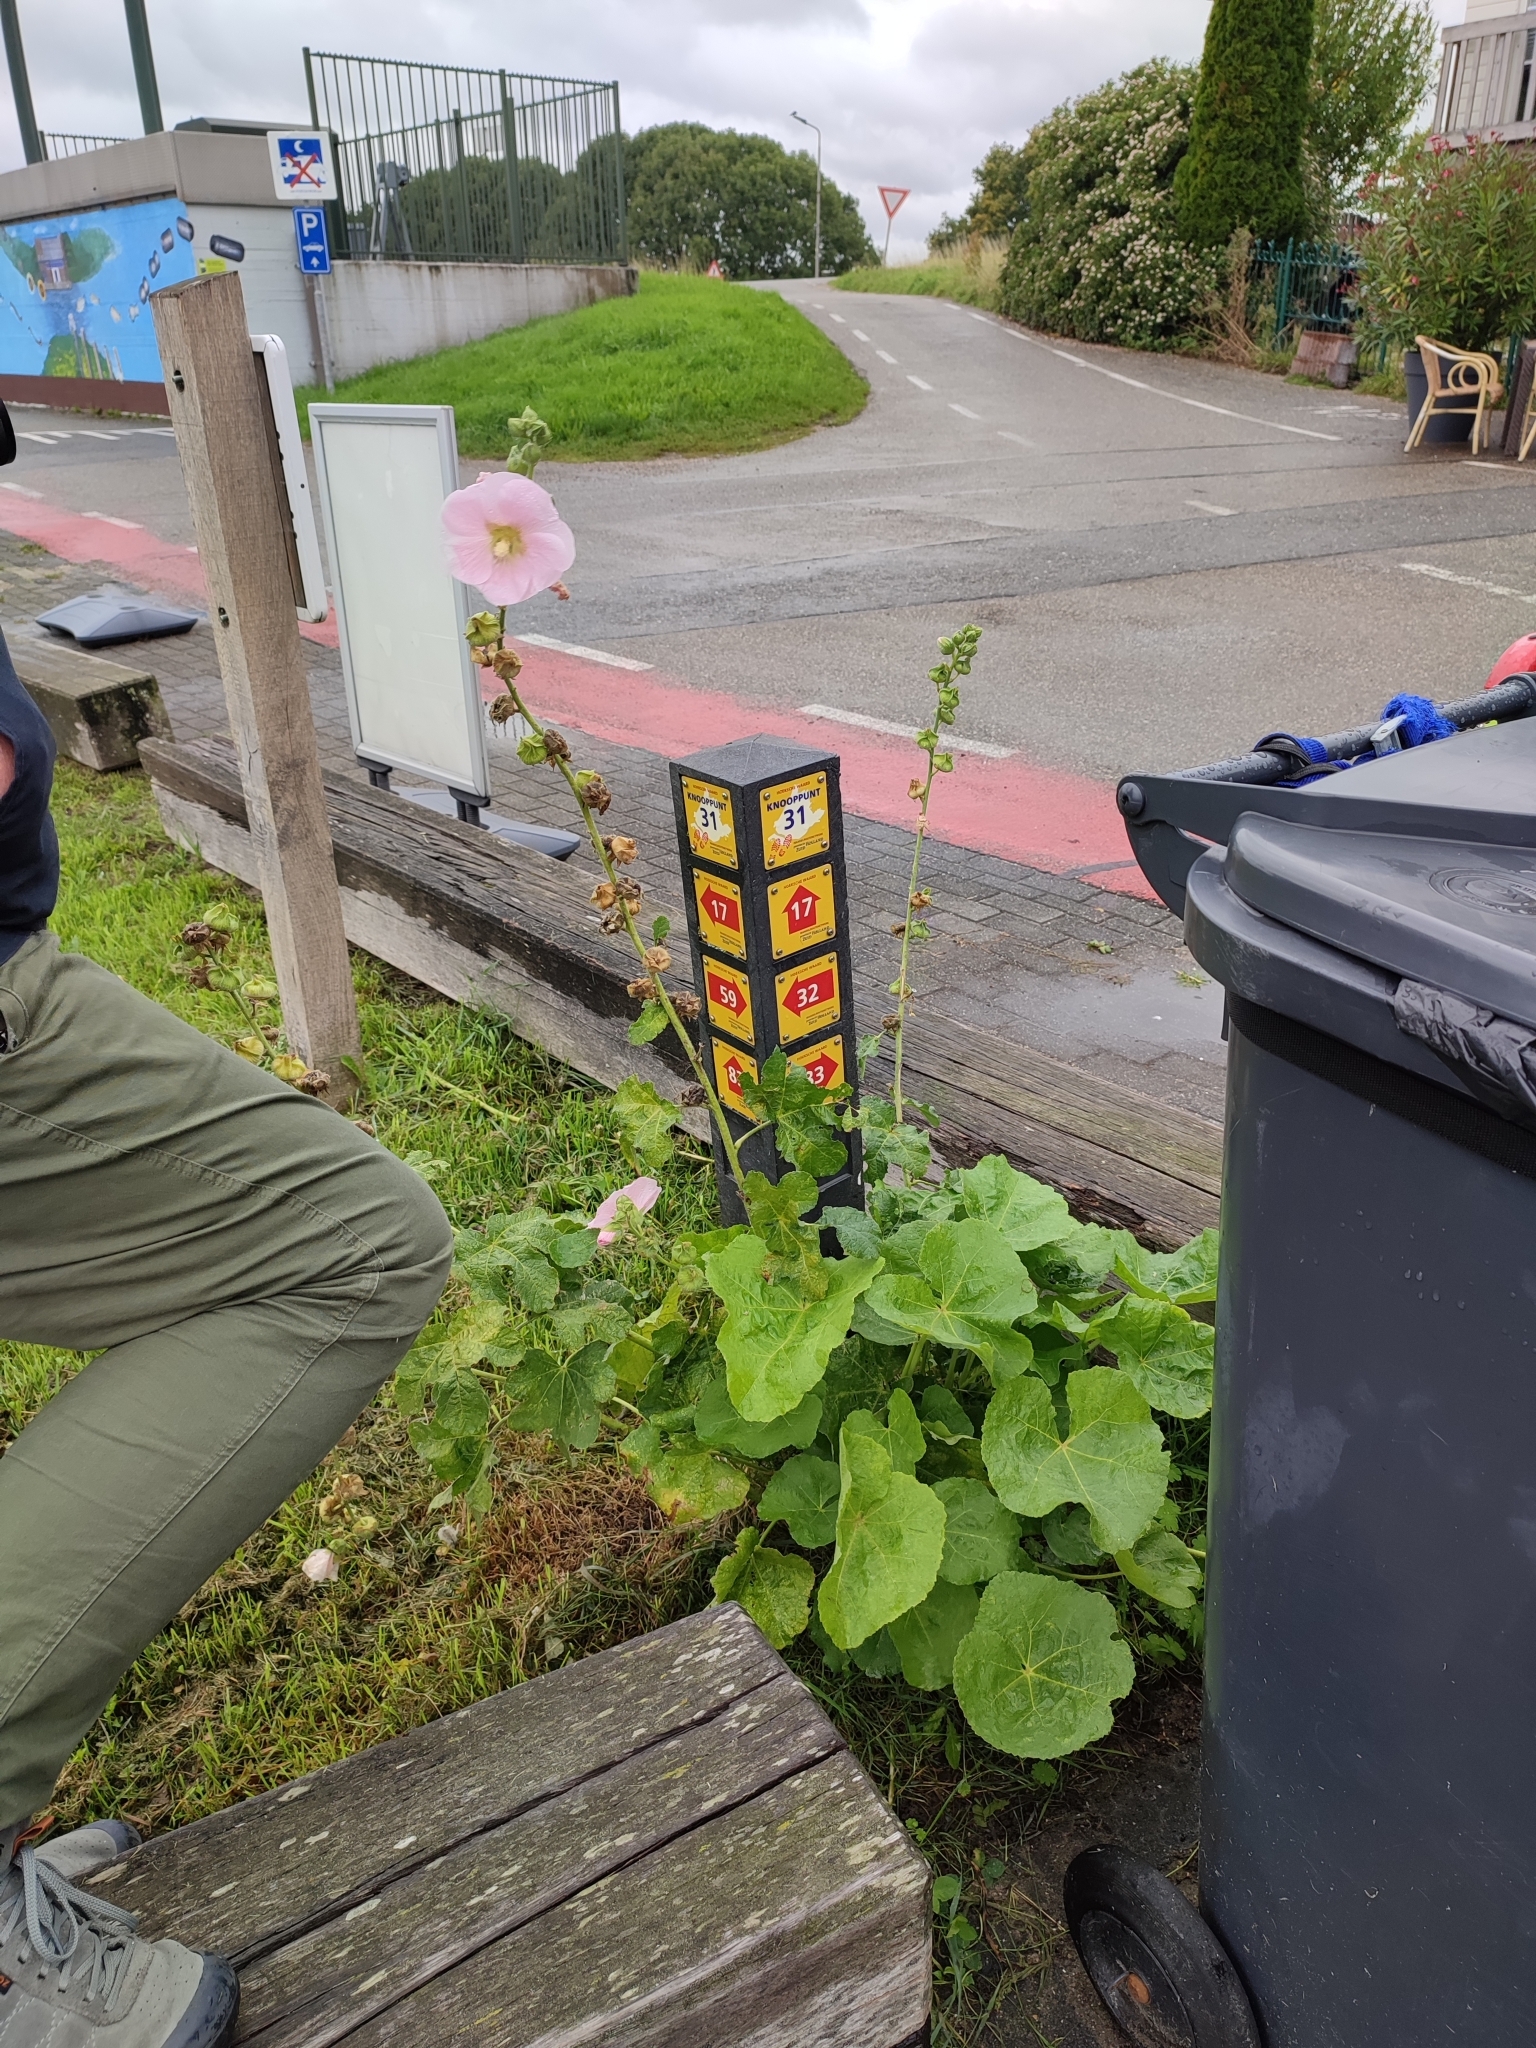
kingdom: Plantae
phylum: Tracheophyta
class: Magnoliopsida
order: Malvales
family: Malvaceae
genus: Alcea
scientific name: Alcea rosea
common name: Hollyhock
